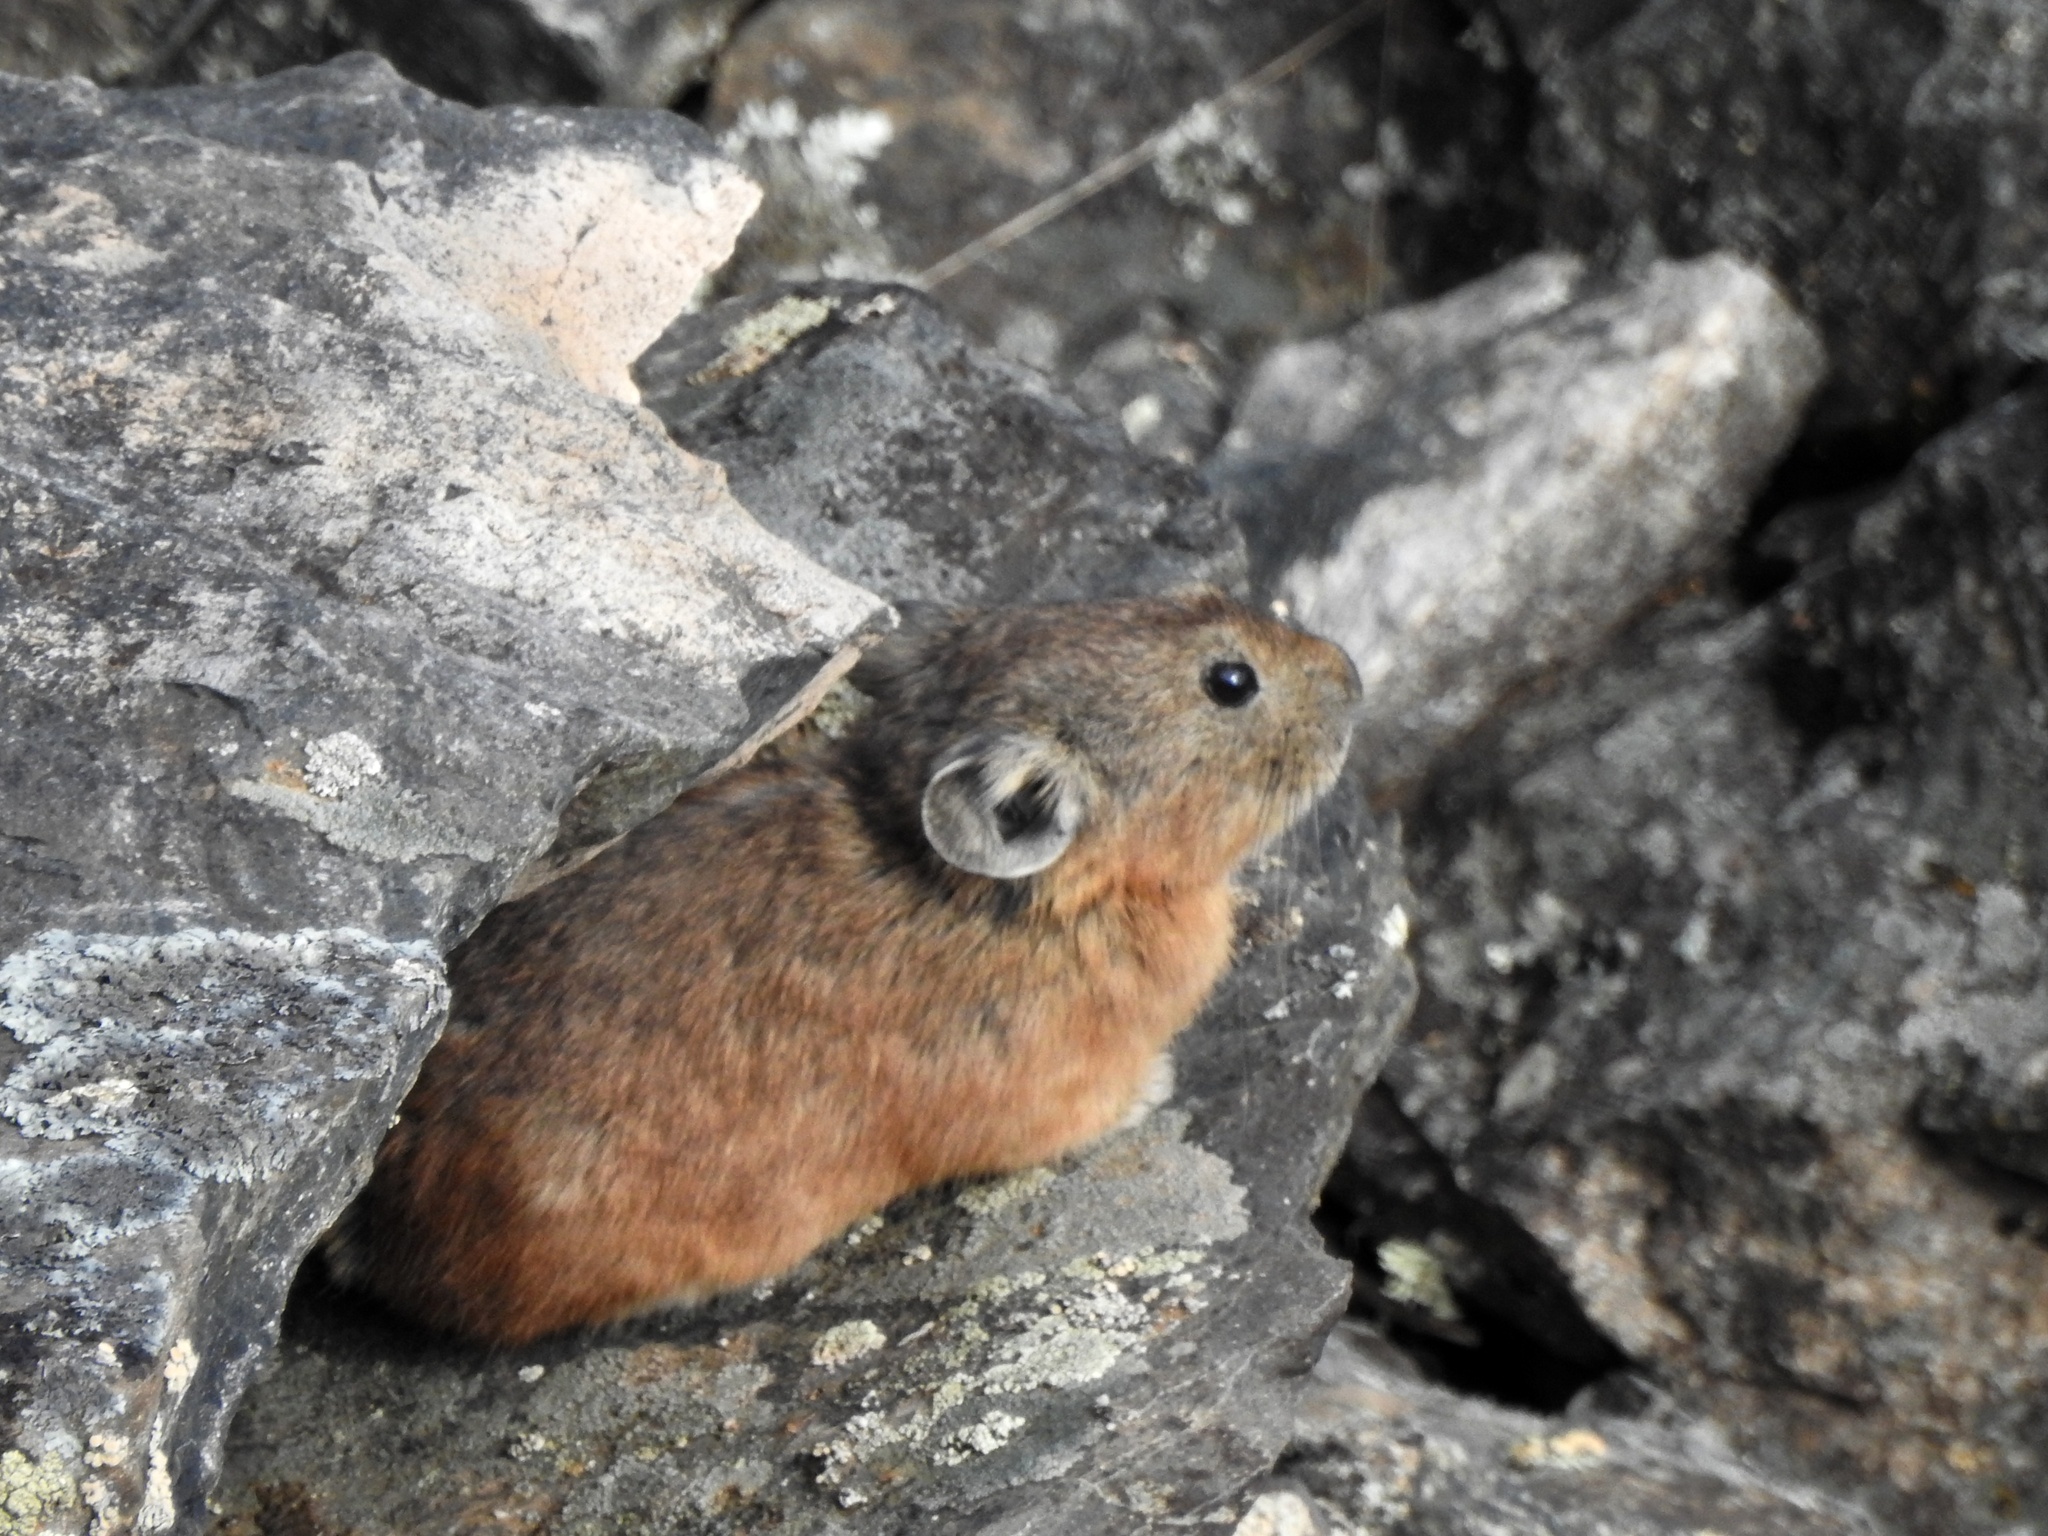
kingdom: Animalia
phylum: Chordata
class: Mammalia
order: Lagomorpha
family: Ochotonidae
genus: Ochotona
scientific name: Ochotona hyperborea
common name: Northern pika
